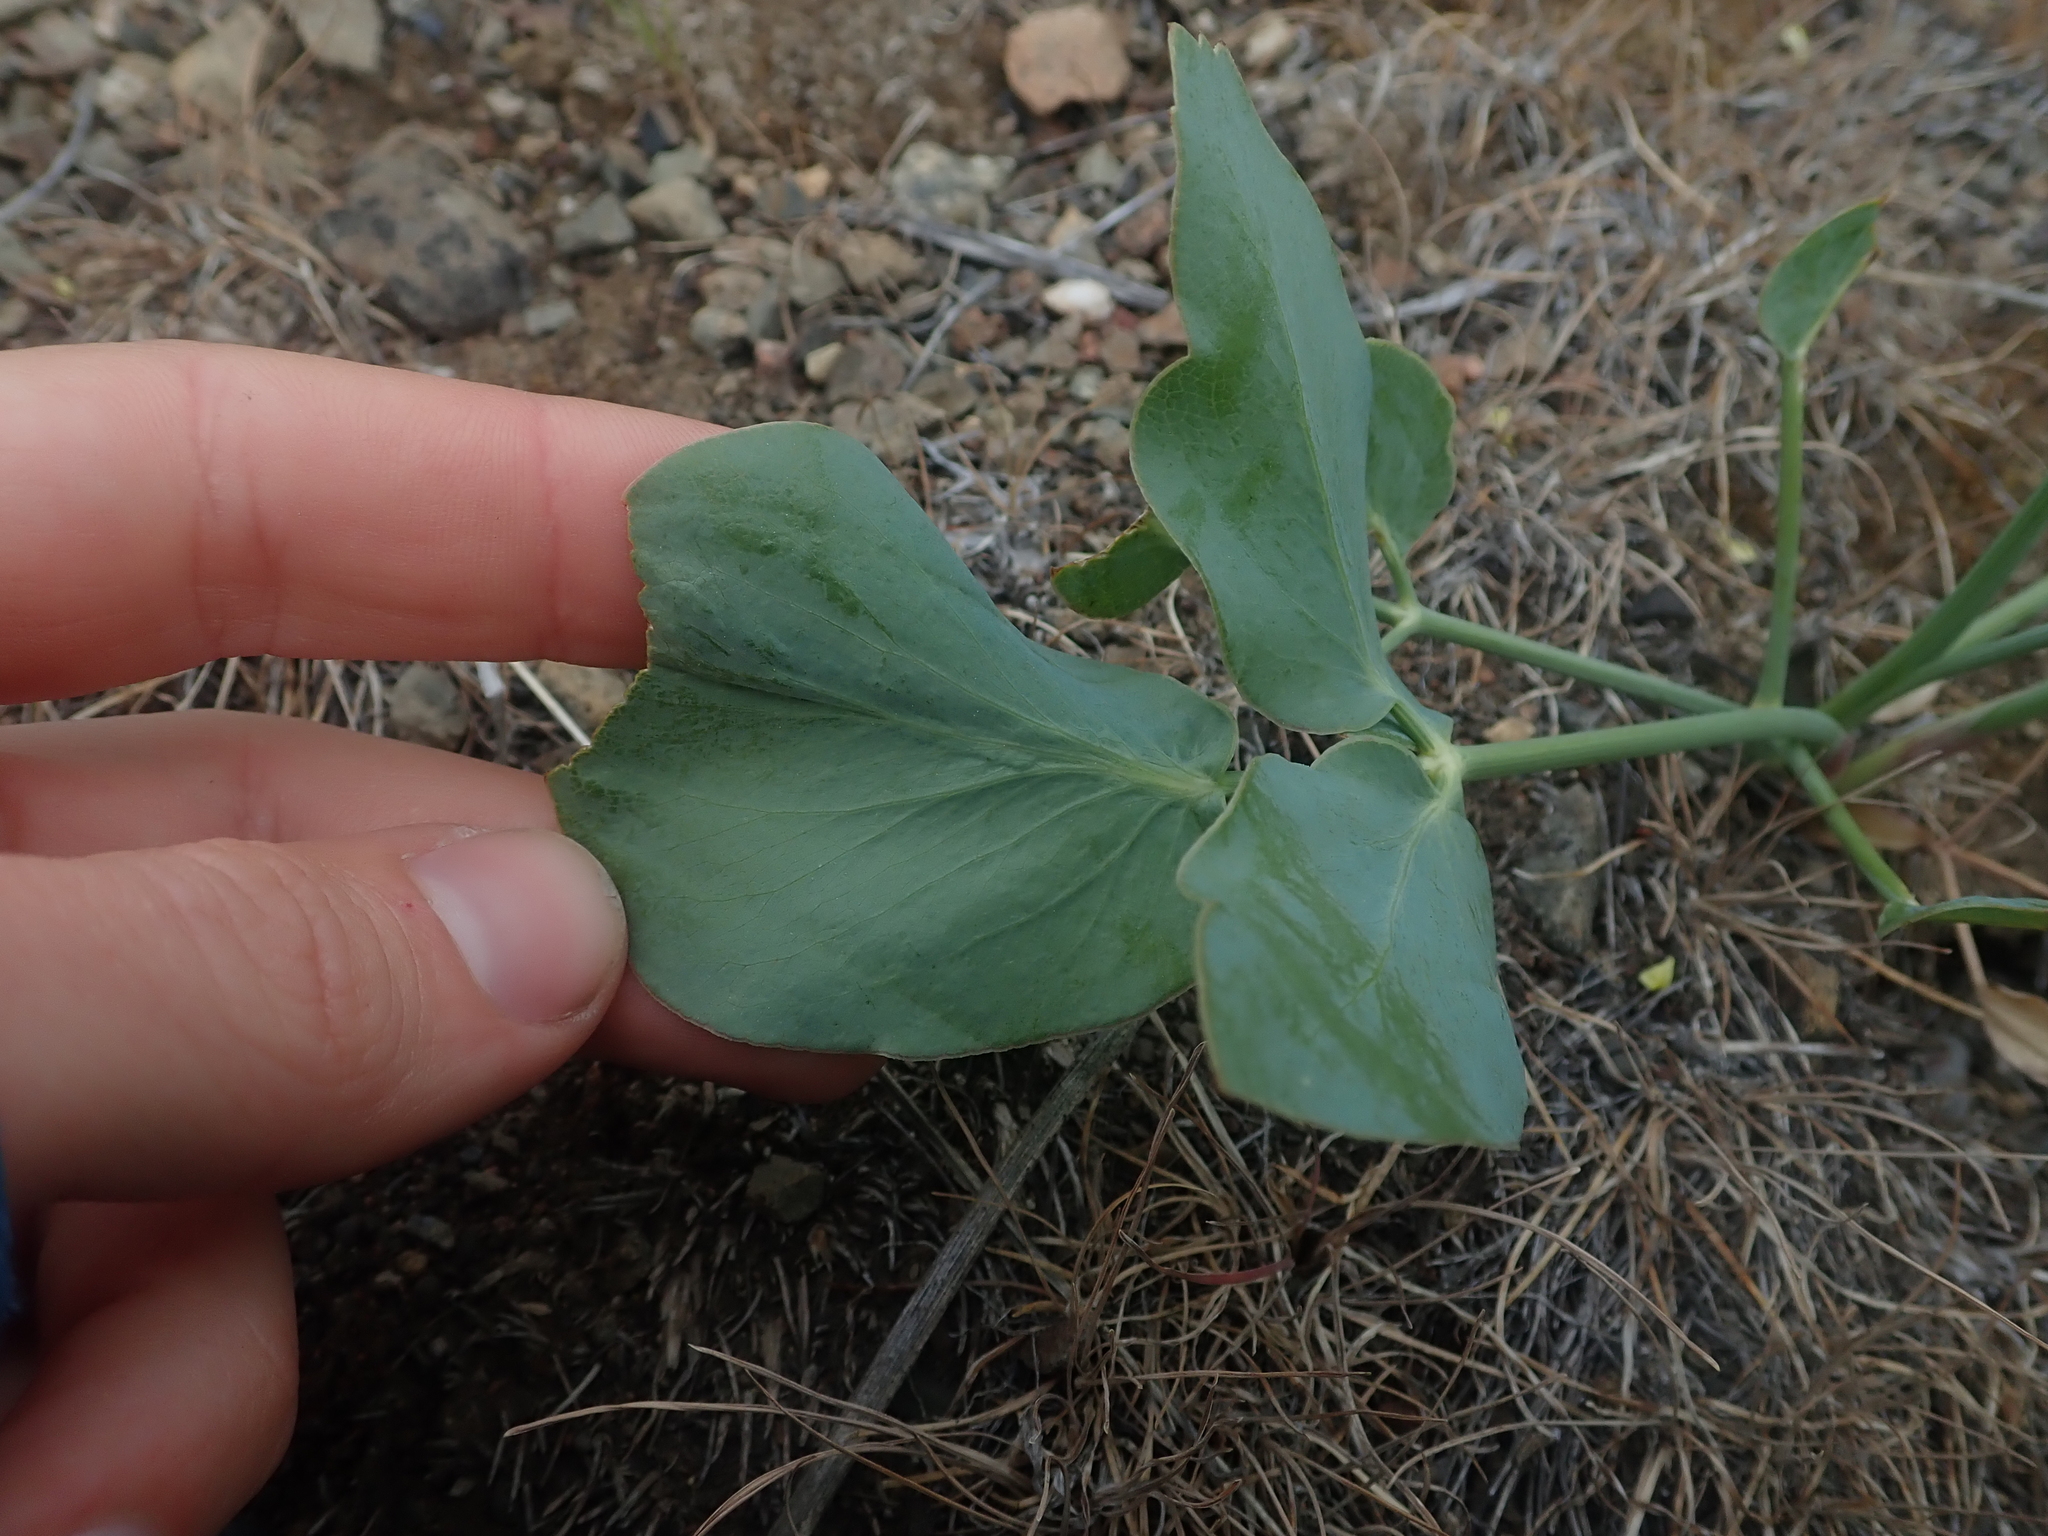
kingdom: Plantae
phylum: Tracheophyta
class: Magnoliopsida
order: Apiales
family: Apiaceae
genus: Lomatium
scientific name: Lomatium nudicaule
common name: Pestle lomatium
